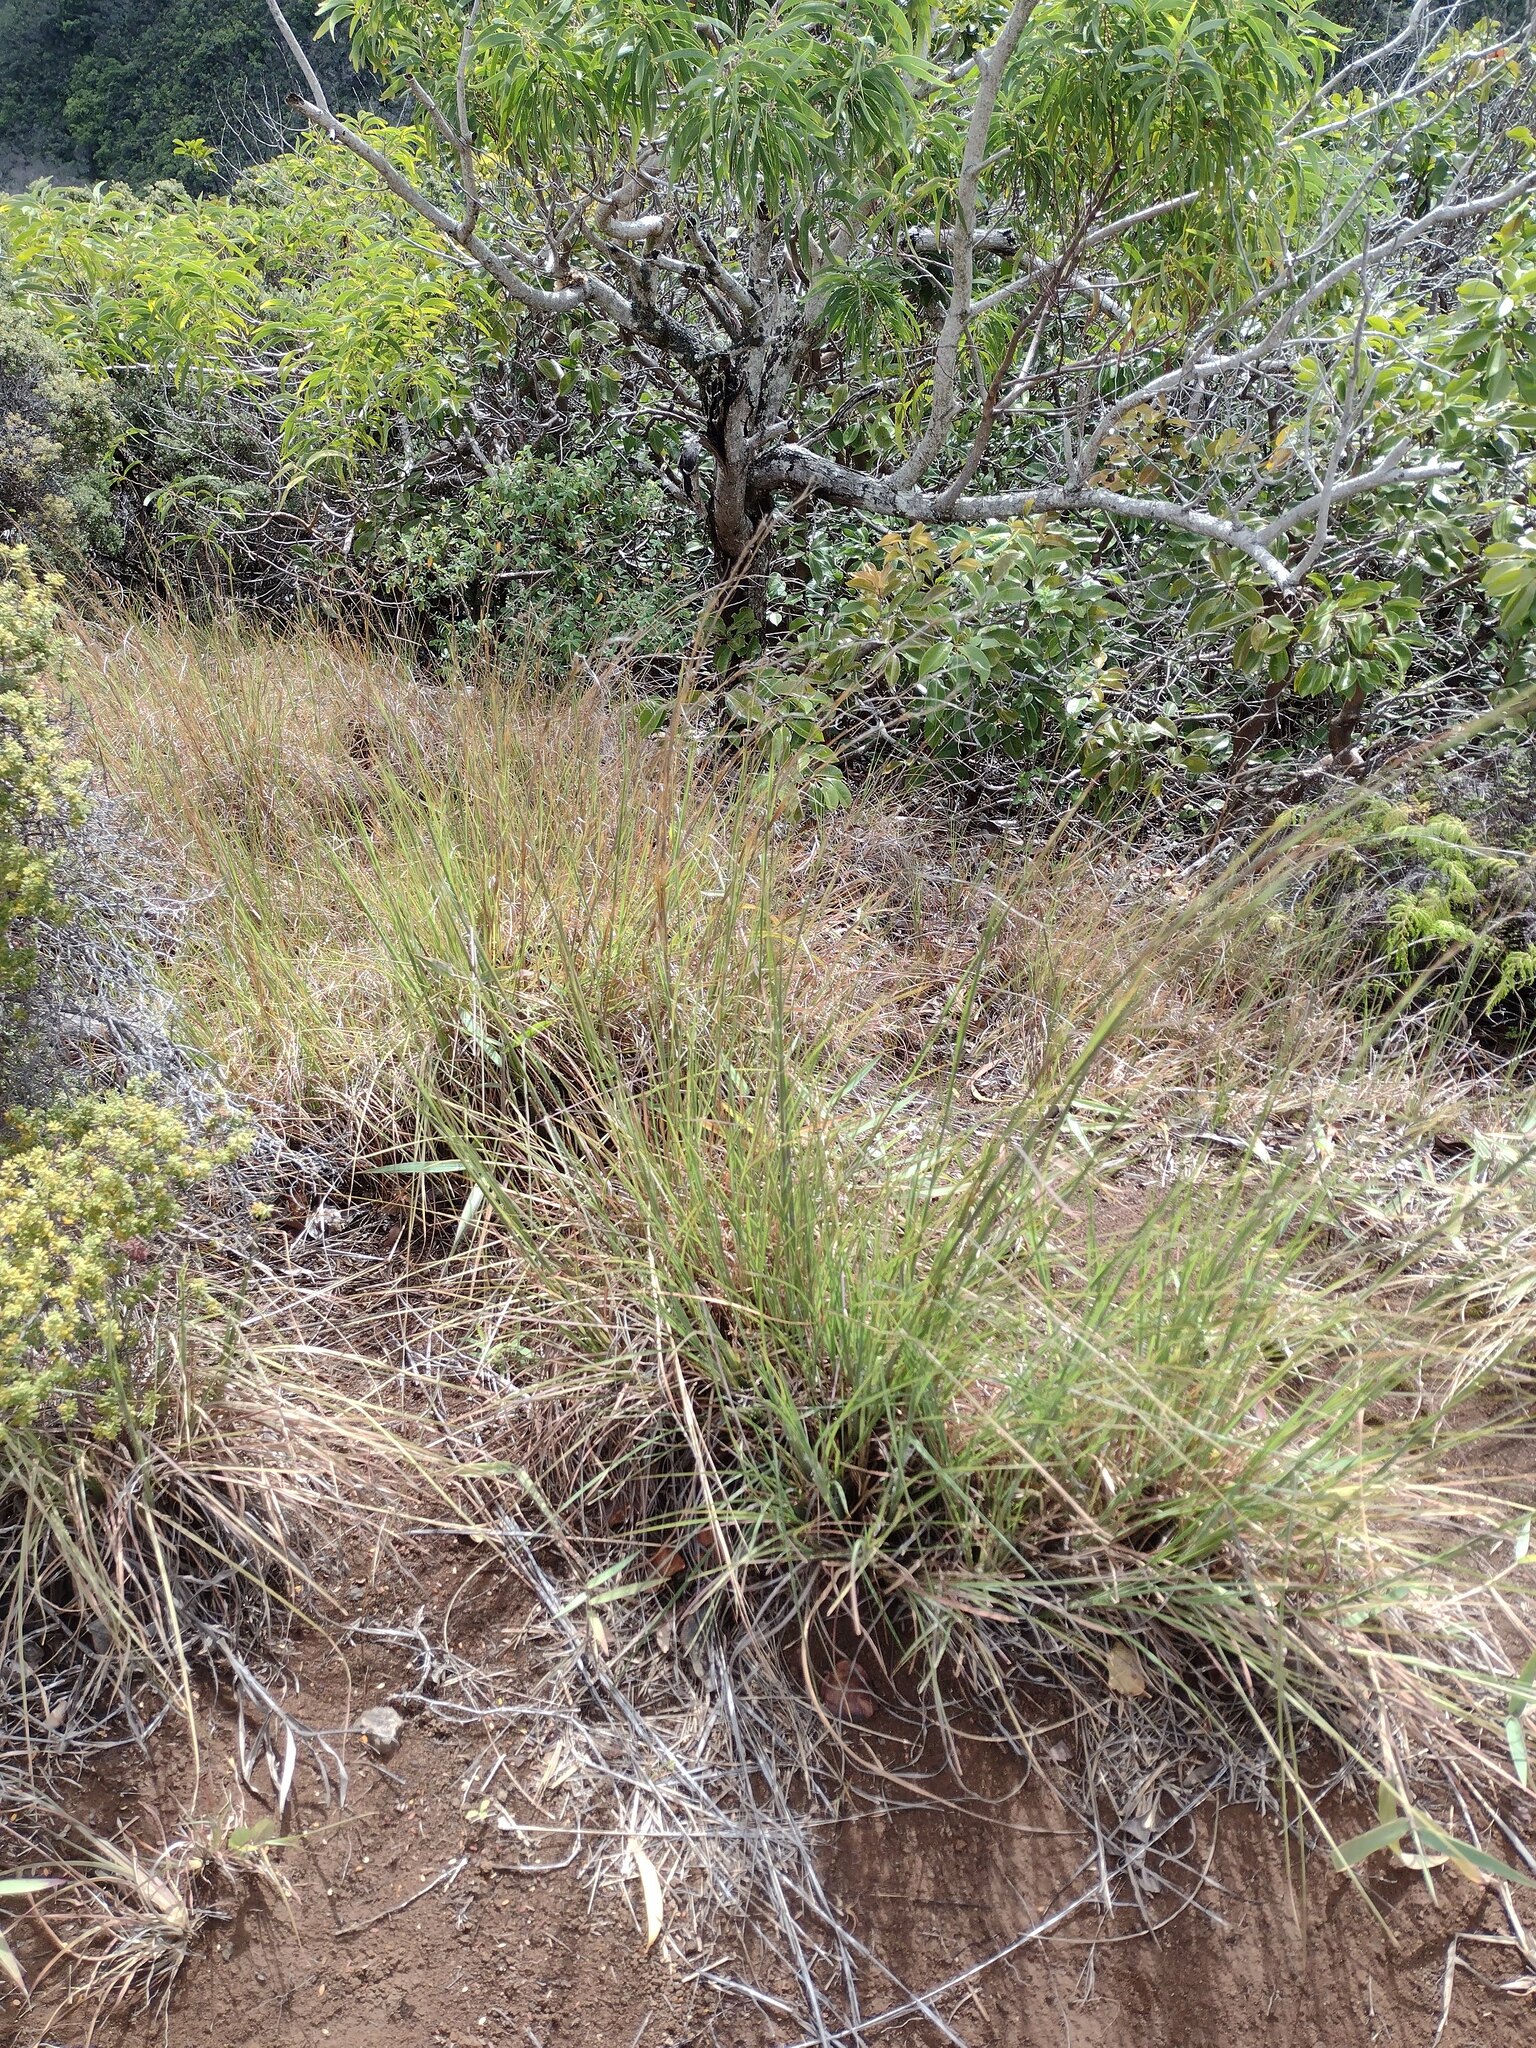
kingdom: Plantae
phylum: Tracheophyta
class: Liliopsida
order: Poales
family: Poaceae
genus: Andropogon
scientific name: Andropogon virginicus
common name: Broomsedge bluestem
